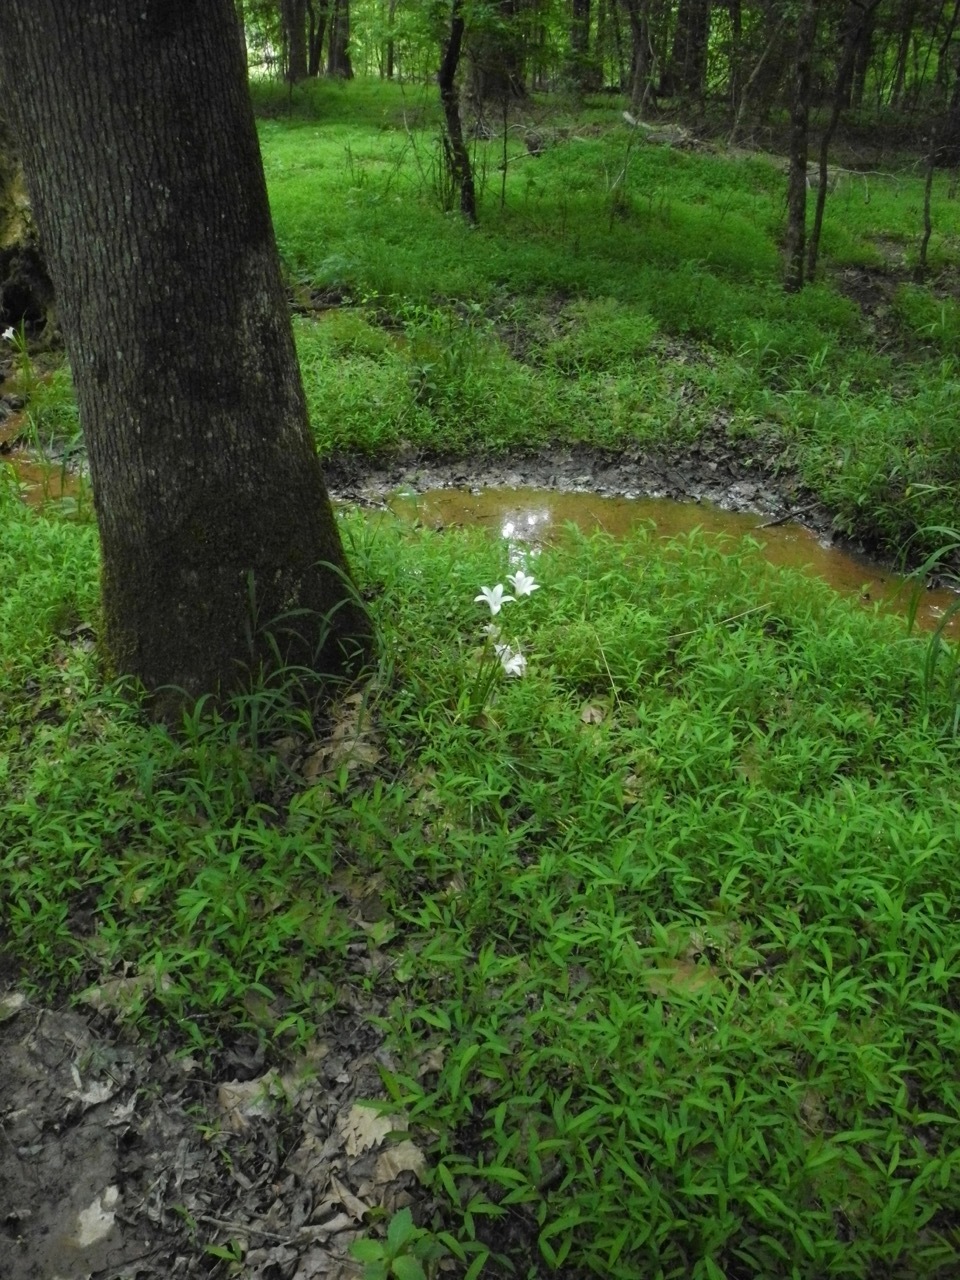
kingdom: Plantae
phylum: Tracheophyta
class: Liliopsida
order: Asparagales
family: Amaryllidaceae
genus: Zephyranthes
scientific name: Zephyranthes atamasco
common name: Atamasco lily
